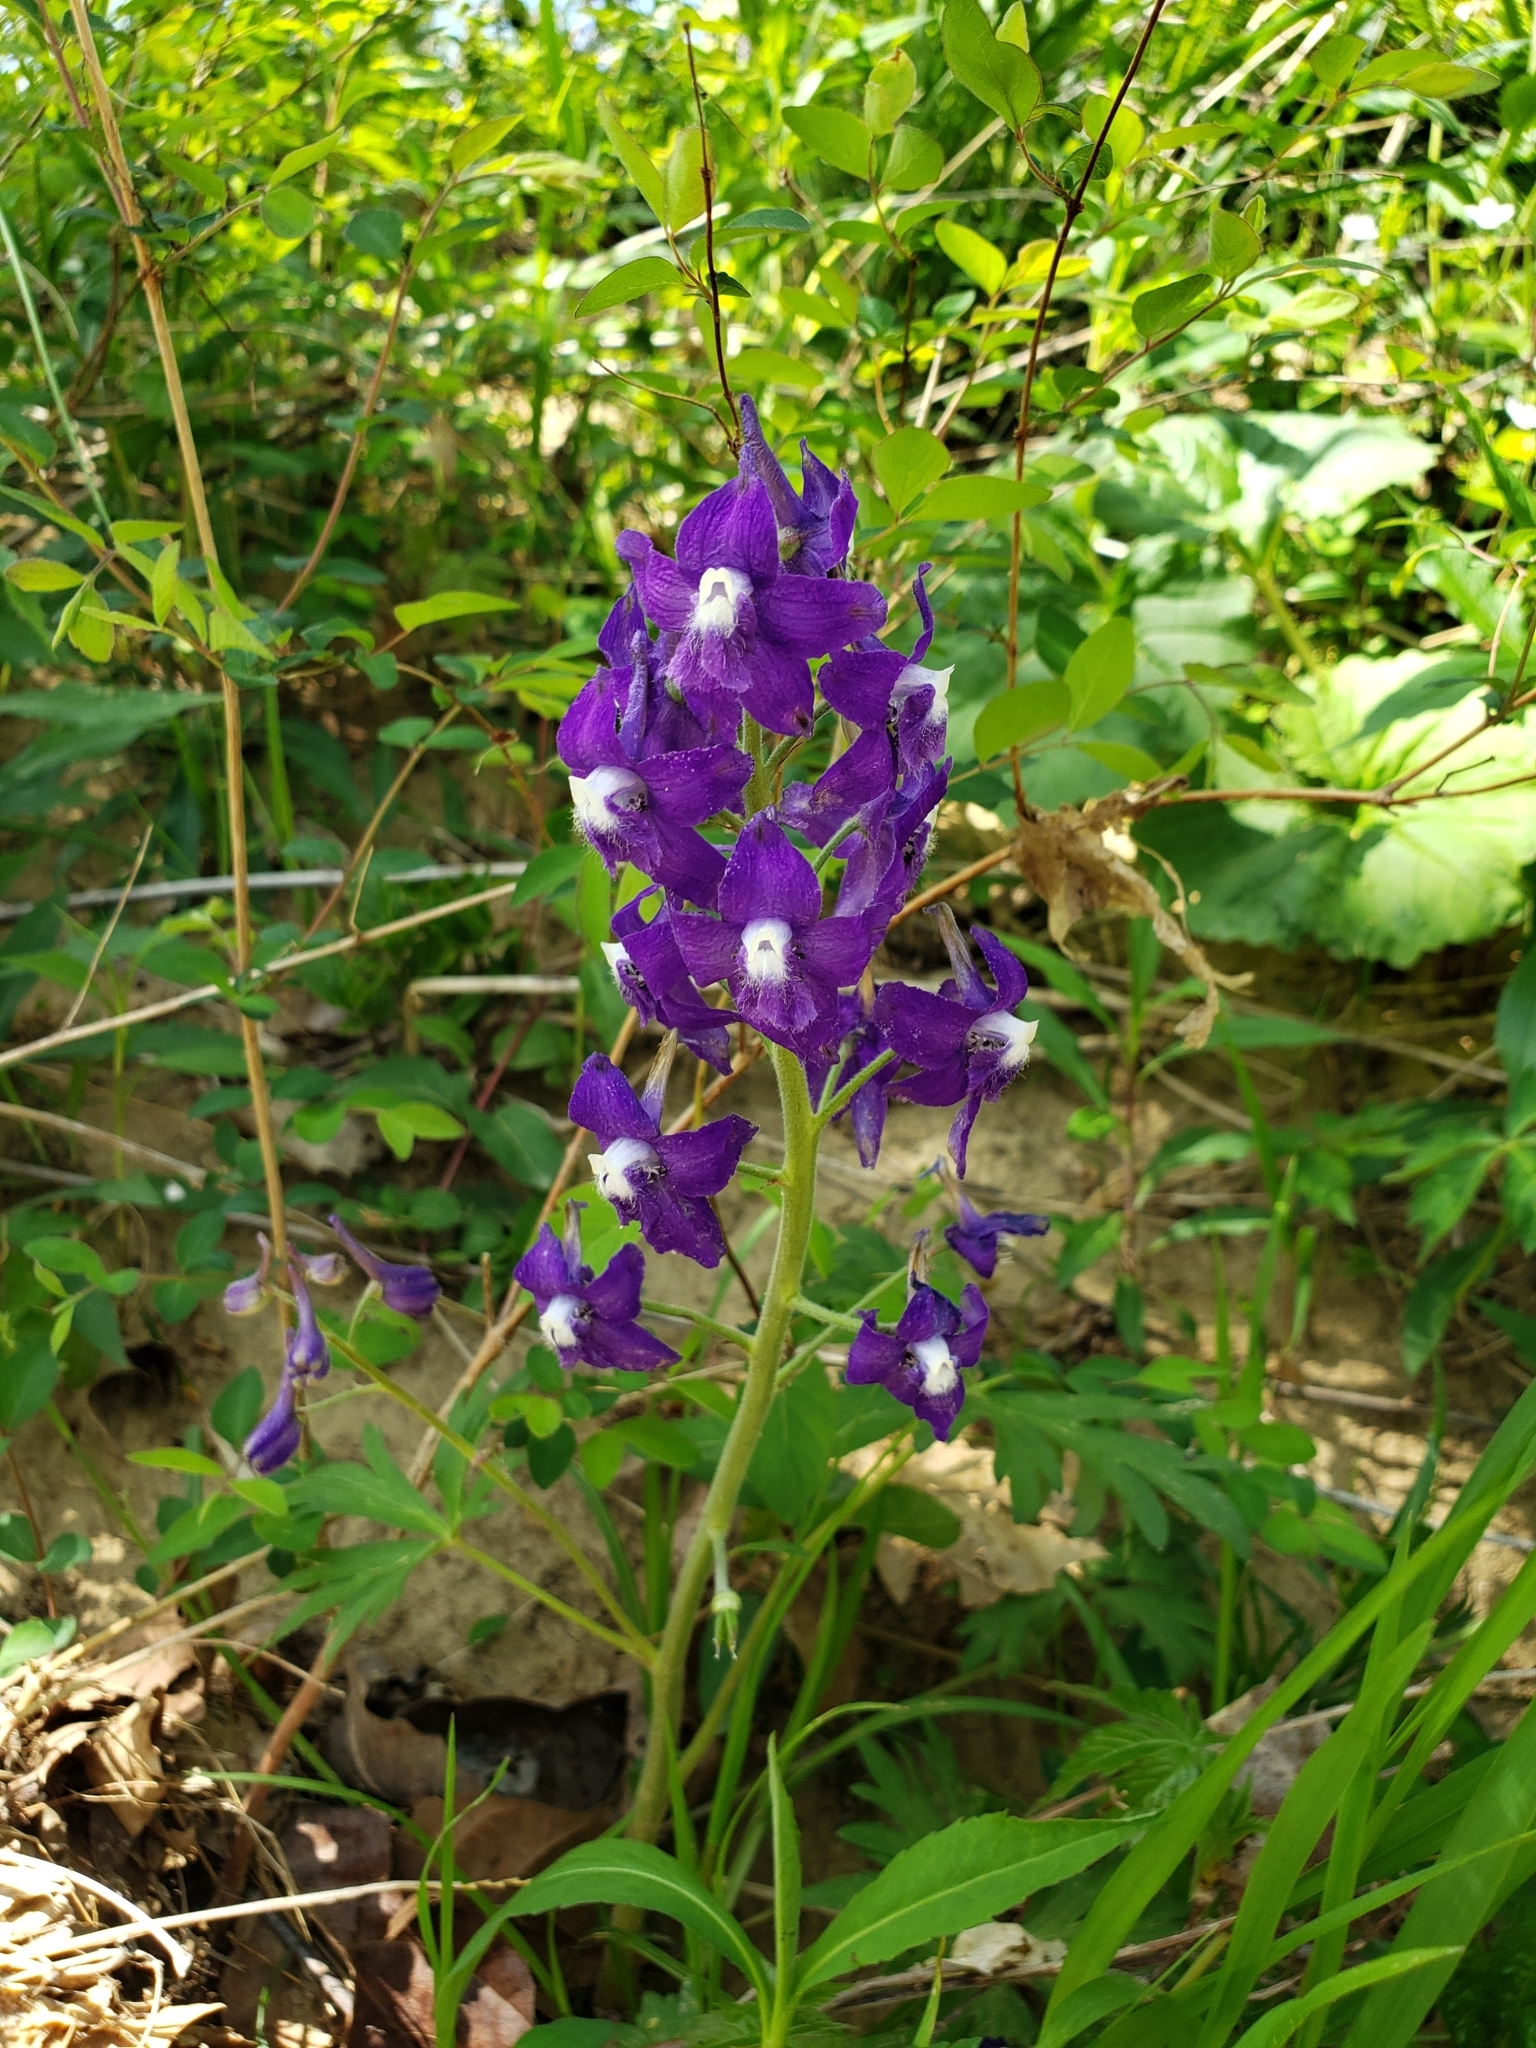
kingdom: Plantae
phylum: Tracheophyta
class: Magnoliopsida
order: Ranunculales
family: Ranunculaceae
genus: Delphinium
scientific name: Delphinium tricorne
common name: Dwarf larkspur
